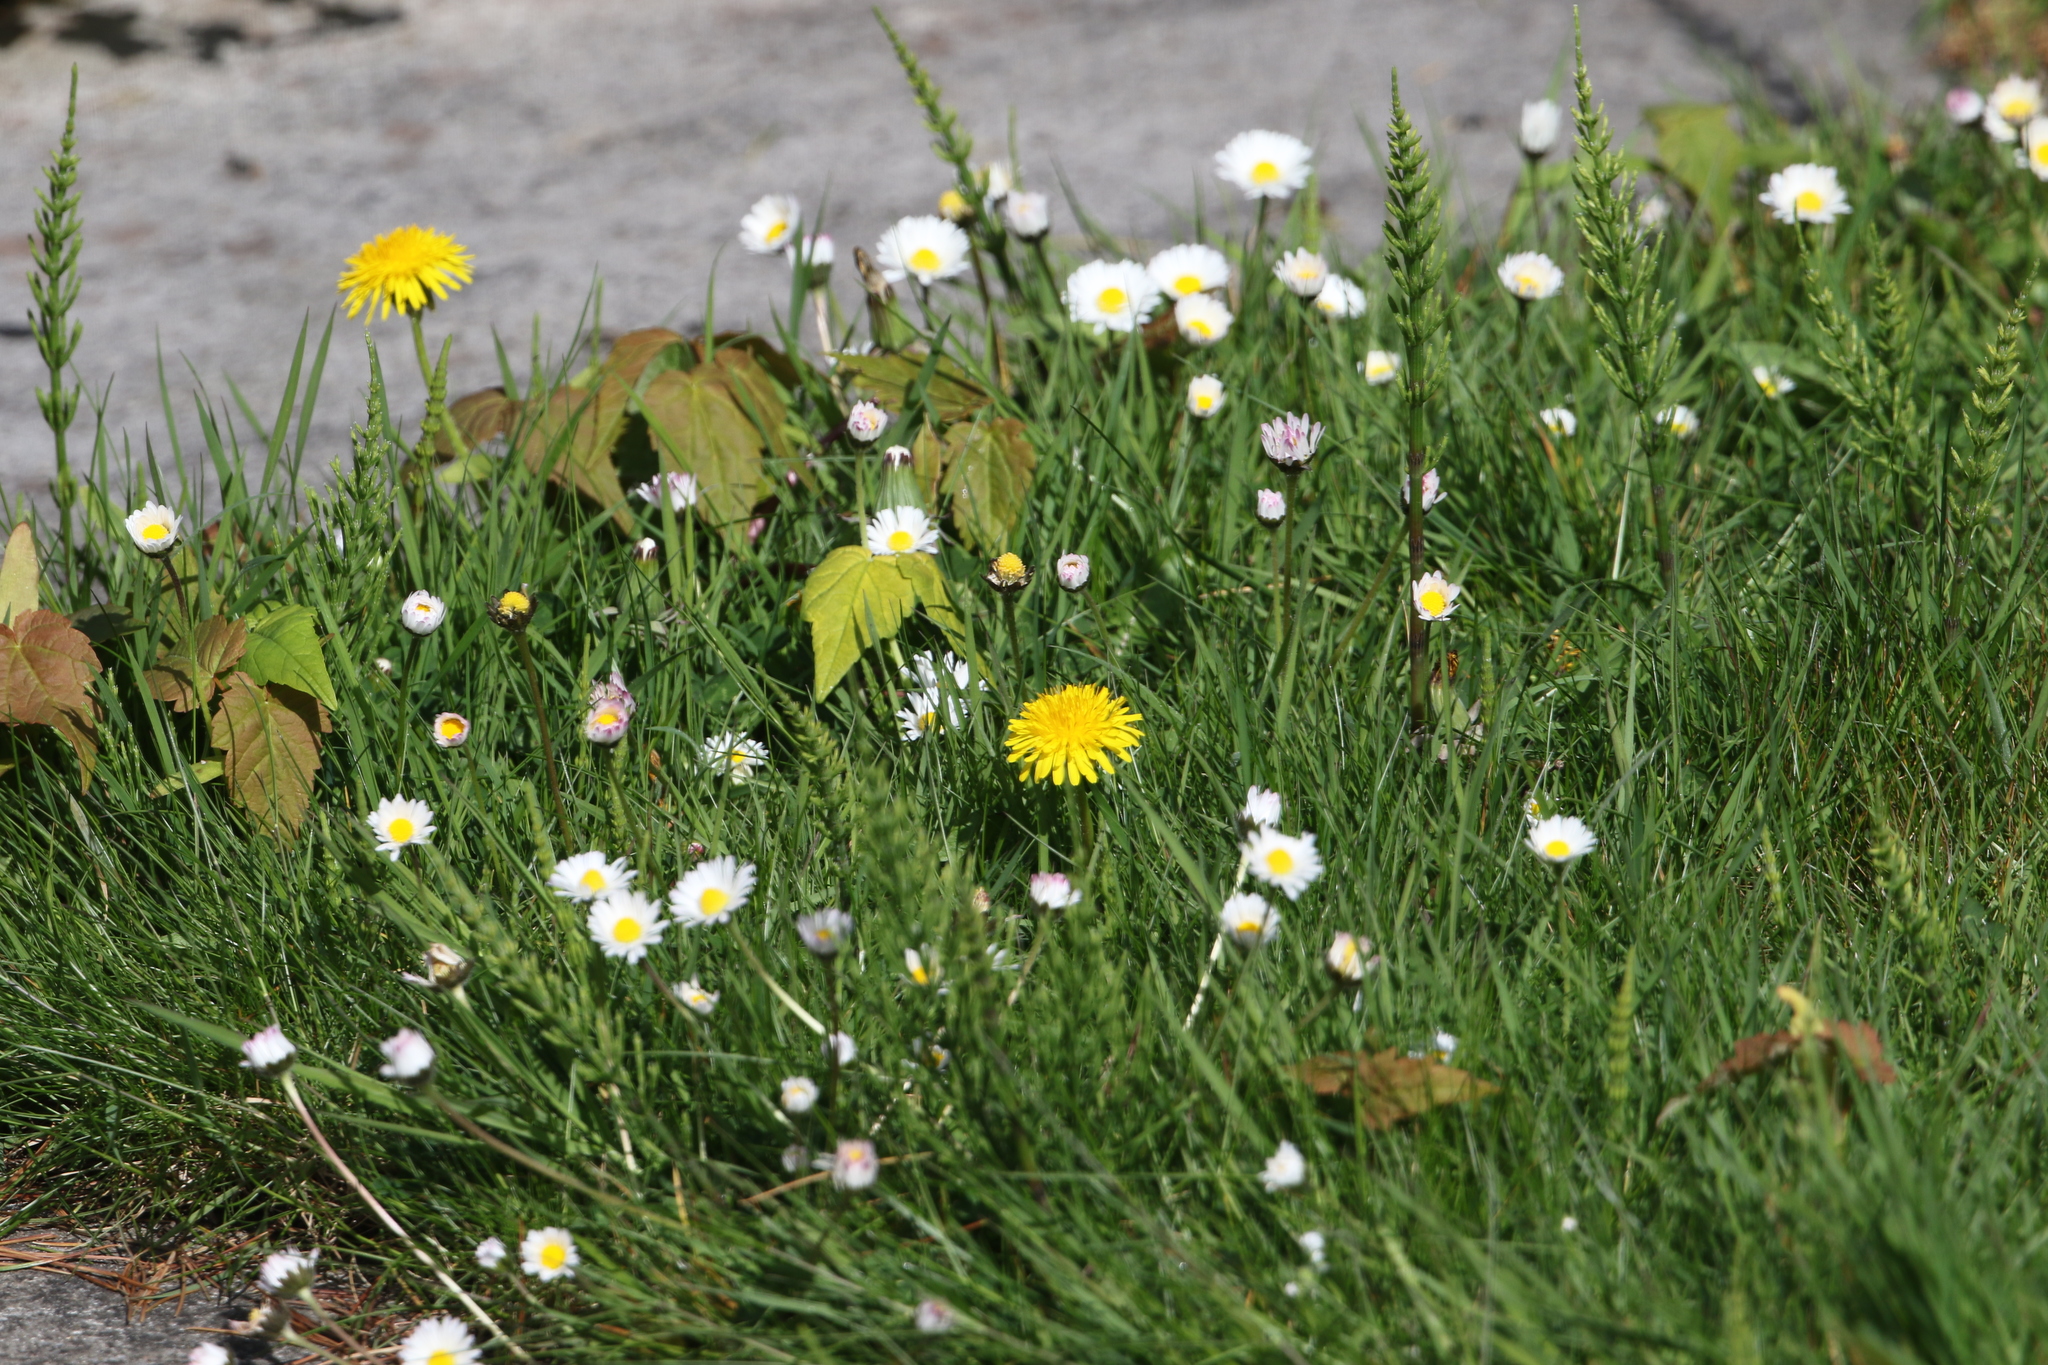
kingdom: Plantae
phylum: Tracheophyta
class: Magnoliopsida
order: Sapindales
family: Sapindaceae
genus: Acer
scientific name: Acer pseudoplatanus
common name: Sycamore
